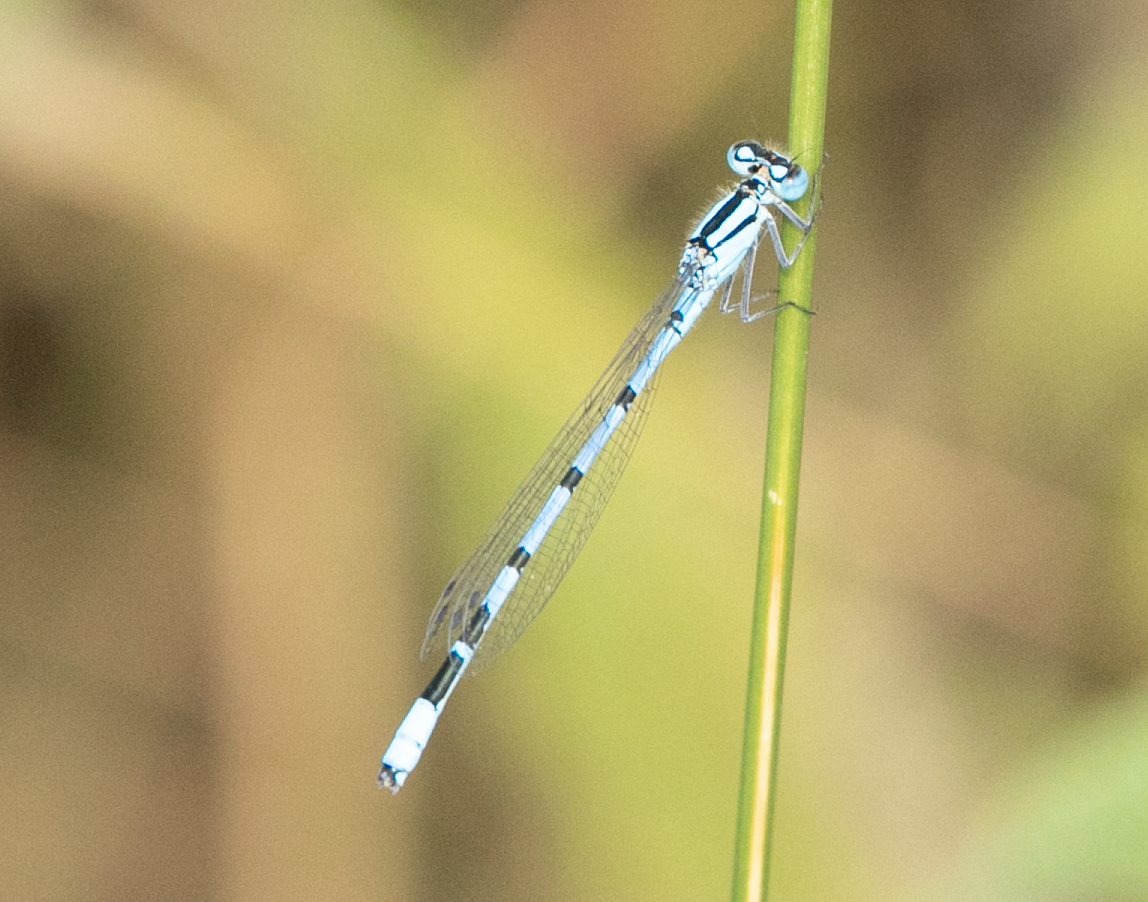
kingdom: Animalia
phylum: Arthropoda
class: Insecta
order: Odonata
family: Coenagrionidae
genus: Enallagma
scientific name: Enallagma cyathigerum
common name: Common blue damselfly
